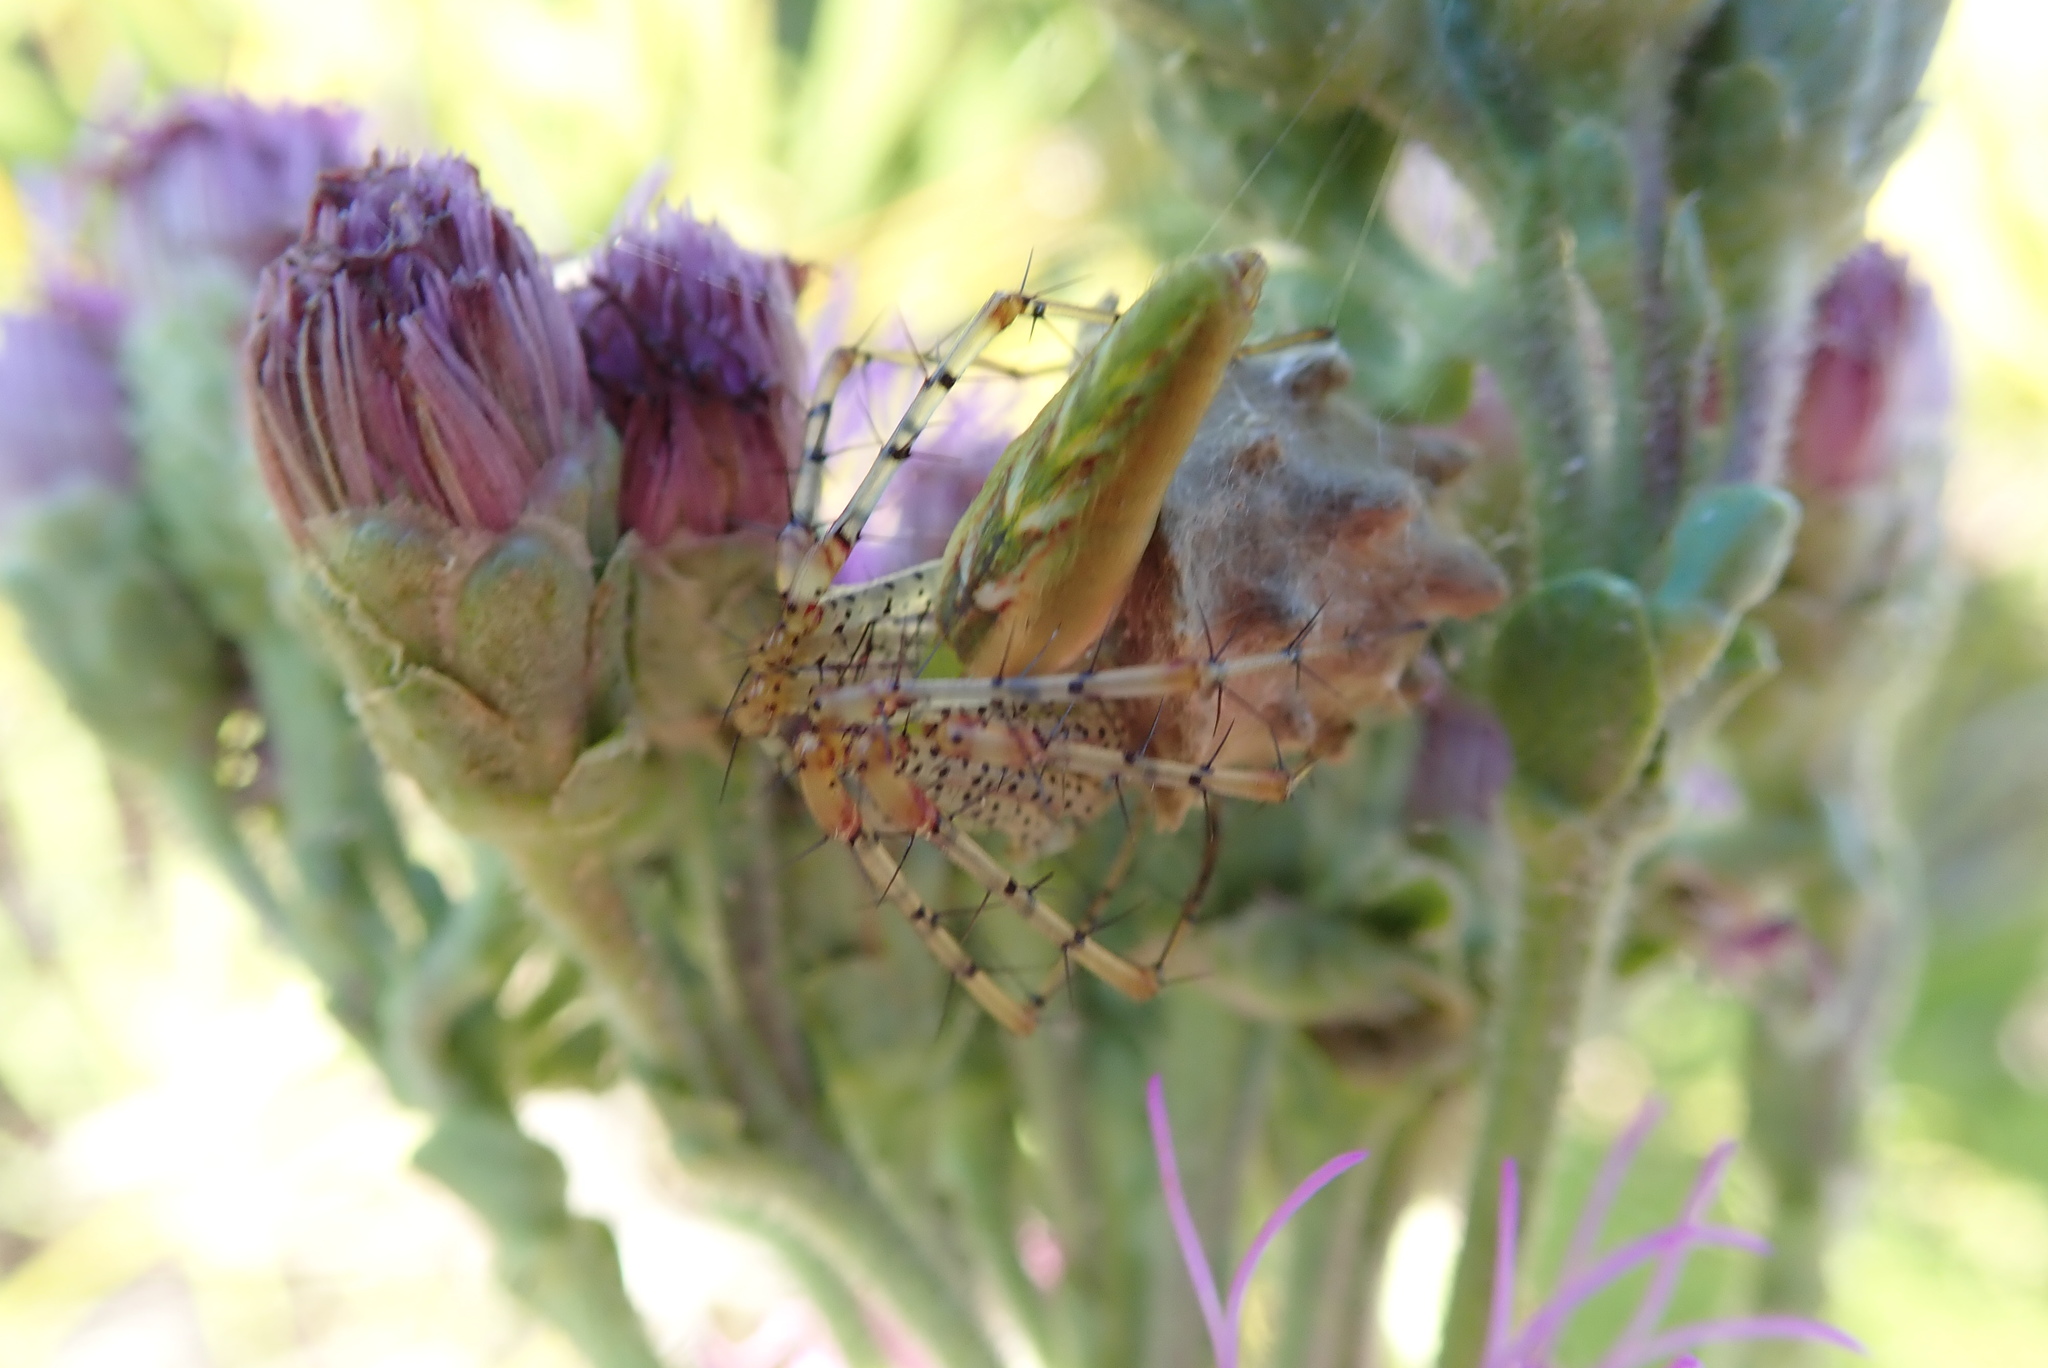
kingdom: Animalia
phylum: Arthropoda
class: Arachnida
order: Araneae
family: Oxyopidae
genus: Peucetia
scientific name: Peucetia viridans
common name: Lynx spiders
